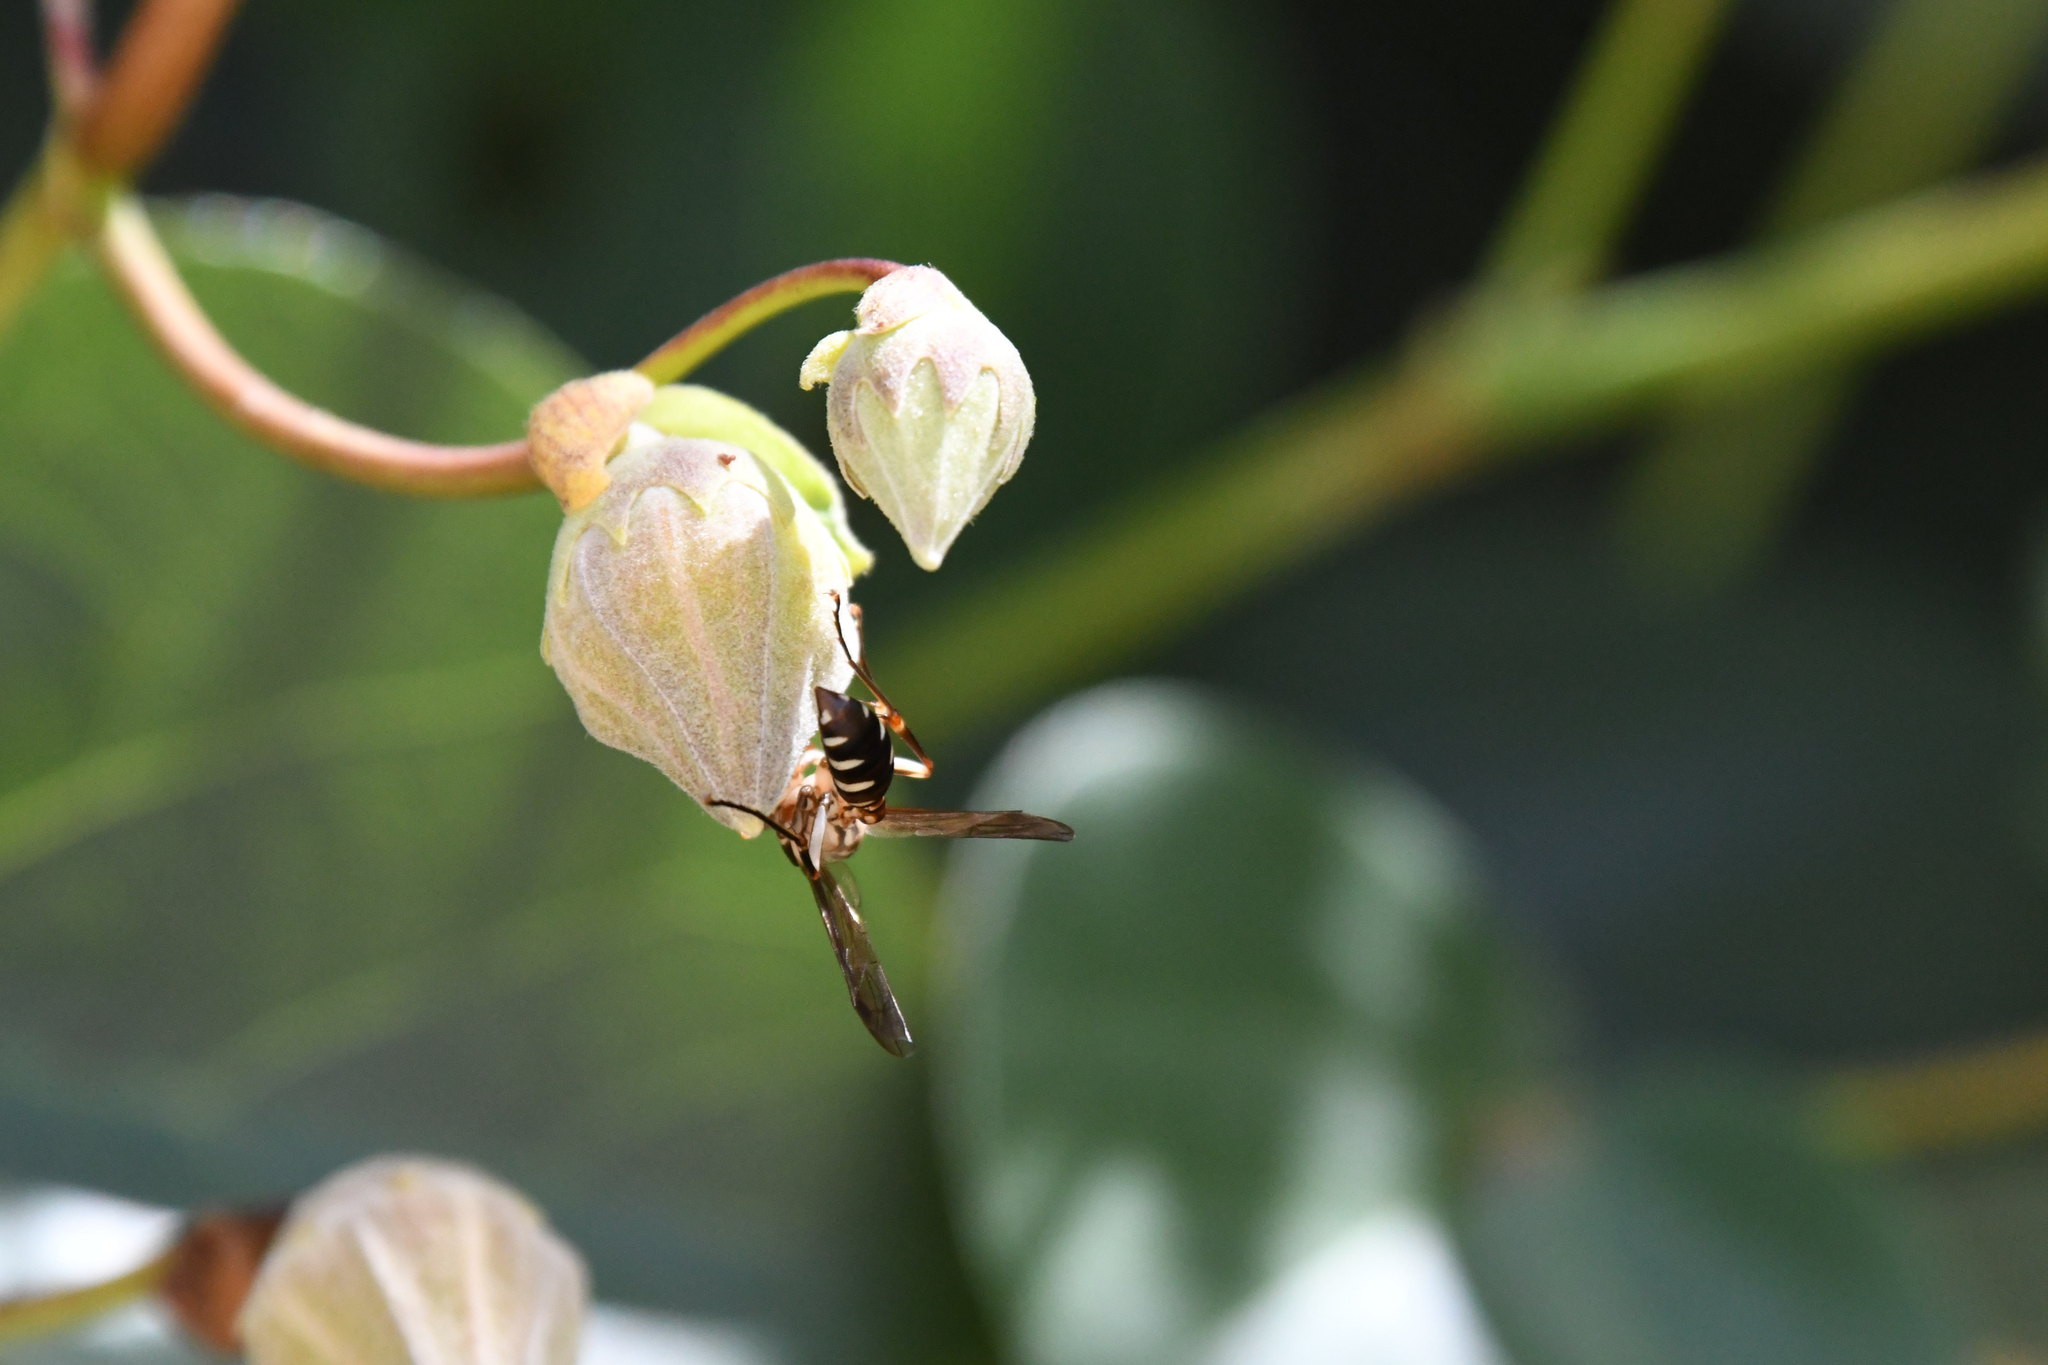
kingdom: Animalia
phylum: Arthropoda
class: Insecta
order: Hymenoptera
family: Vespidae
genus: Parapolybia
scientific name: Parapolybia nodosa
